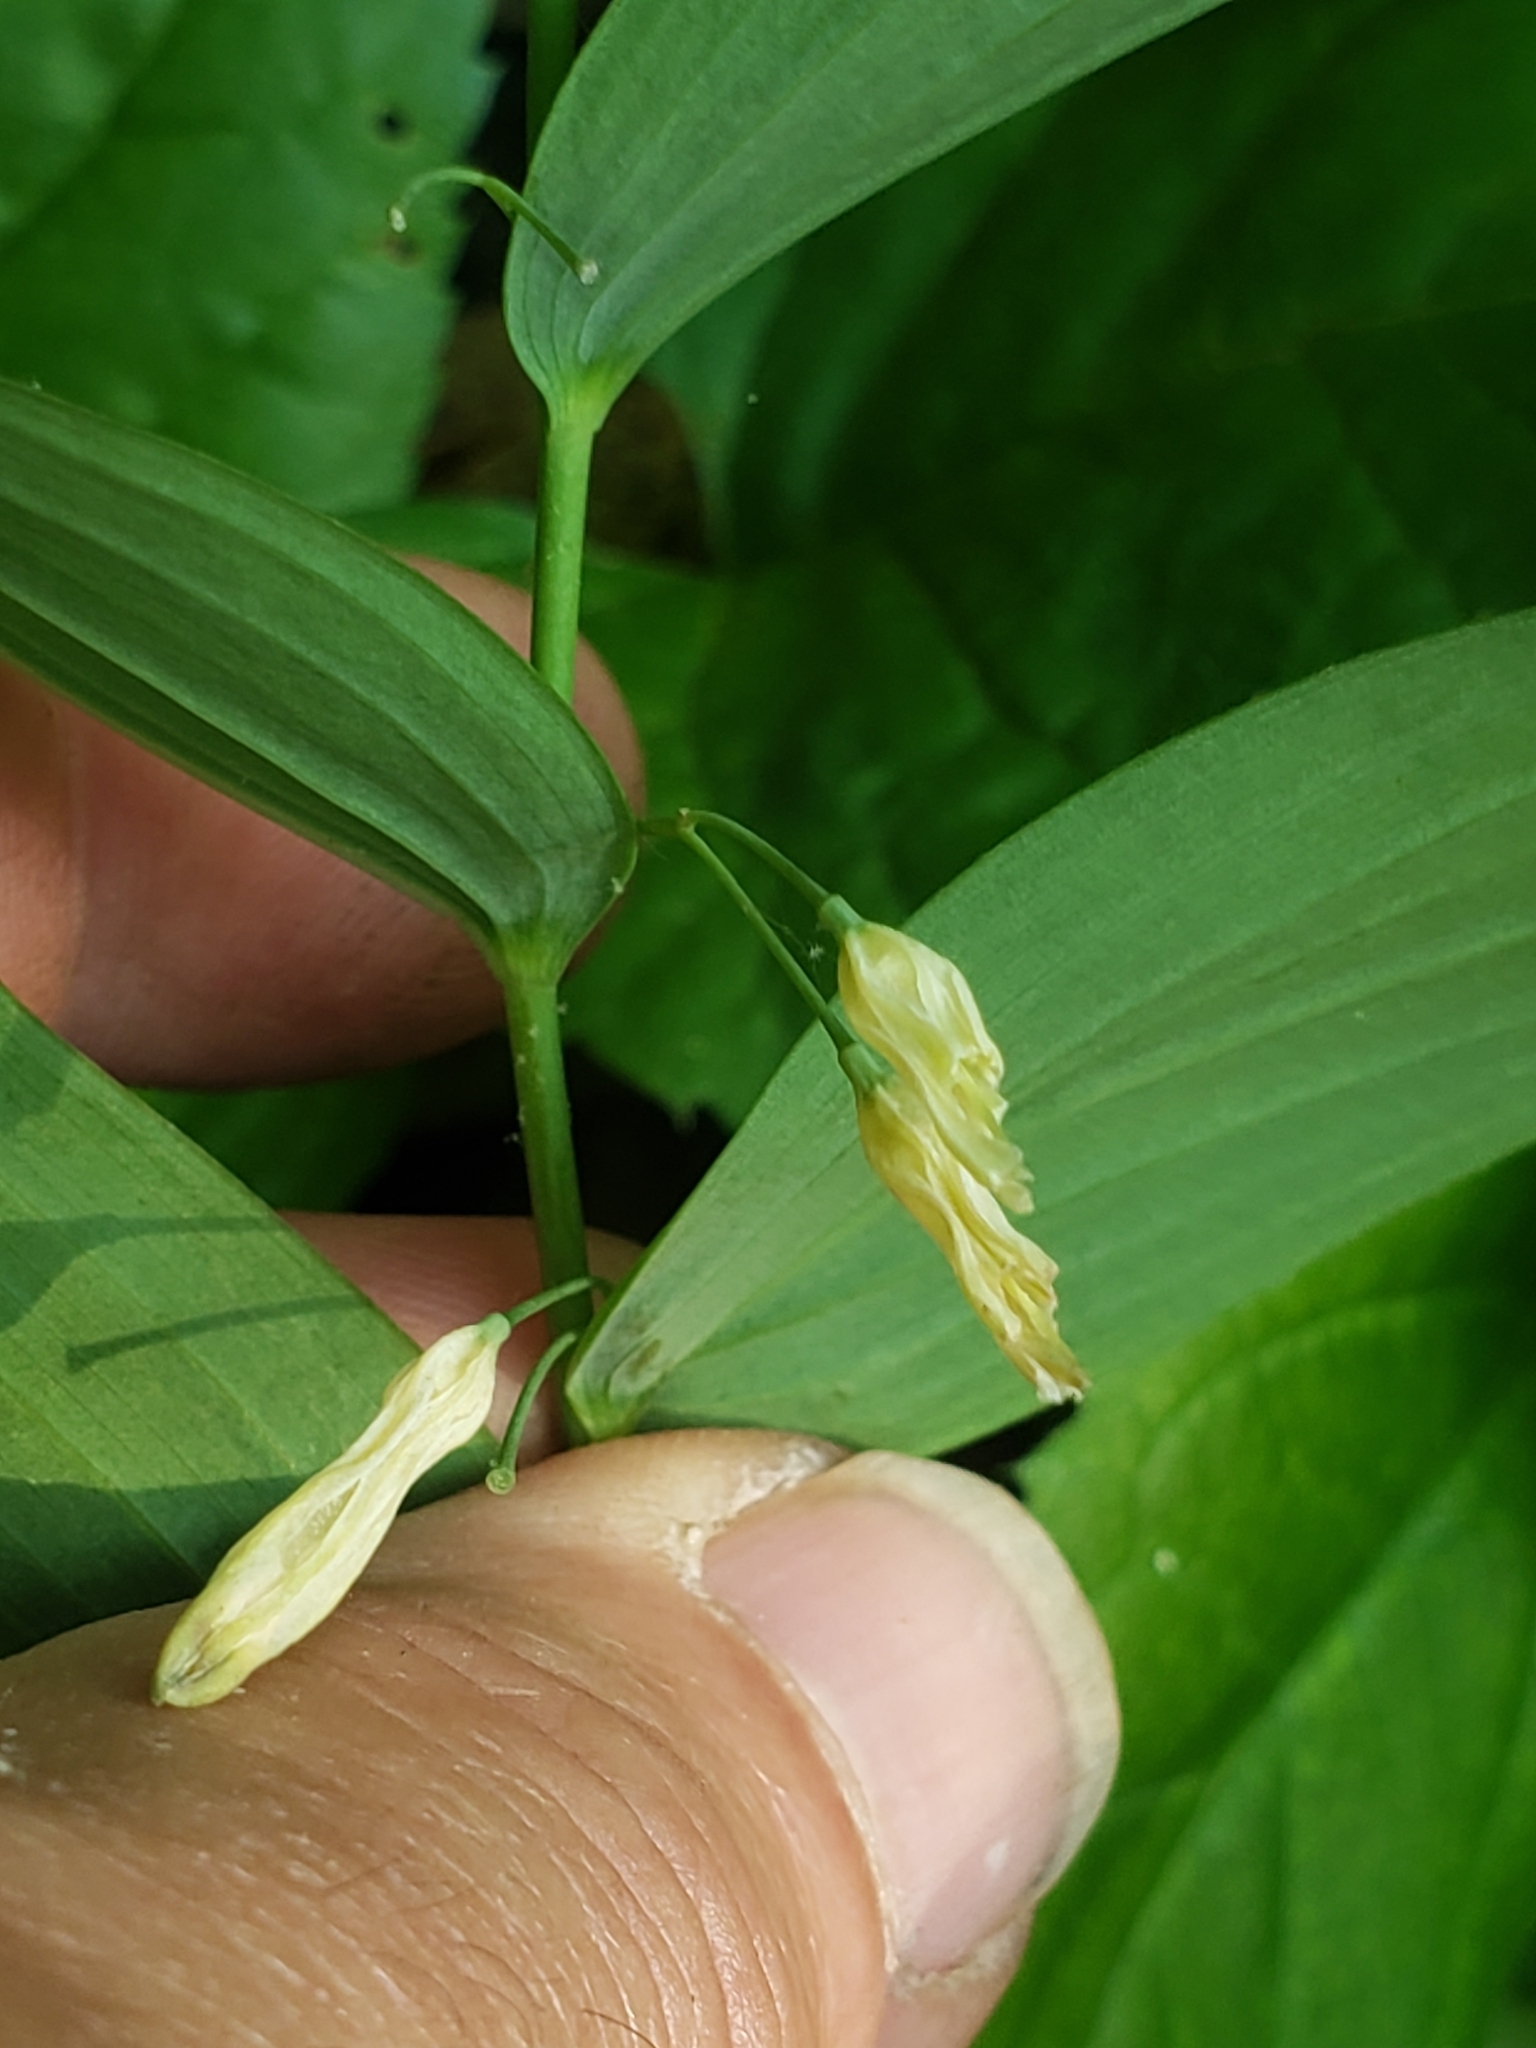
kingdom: Plantae
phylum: Tracheophyta
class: Liliopsida
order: Asparagales
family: Asparagaceae
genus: Polygonatum
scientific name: Polygonatum biflorum
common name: American solomon's-seal
